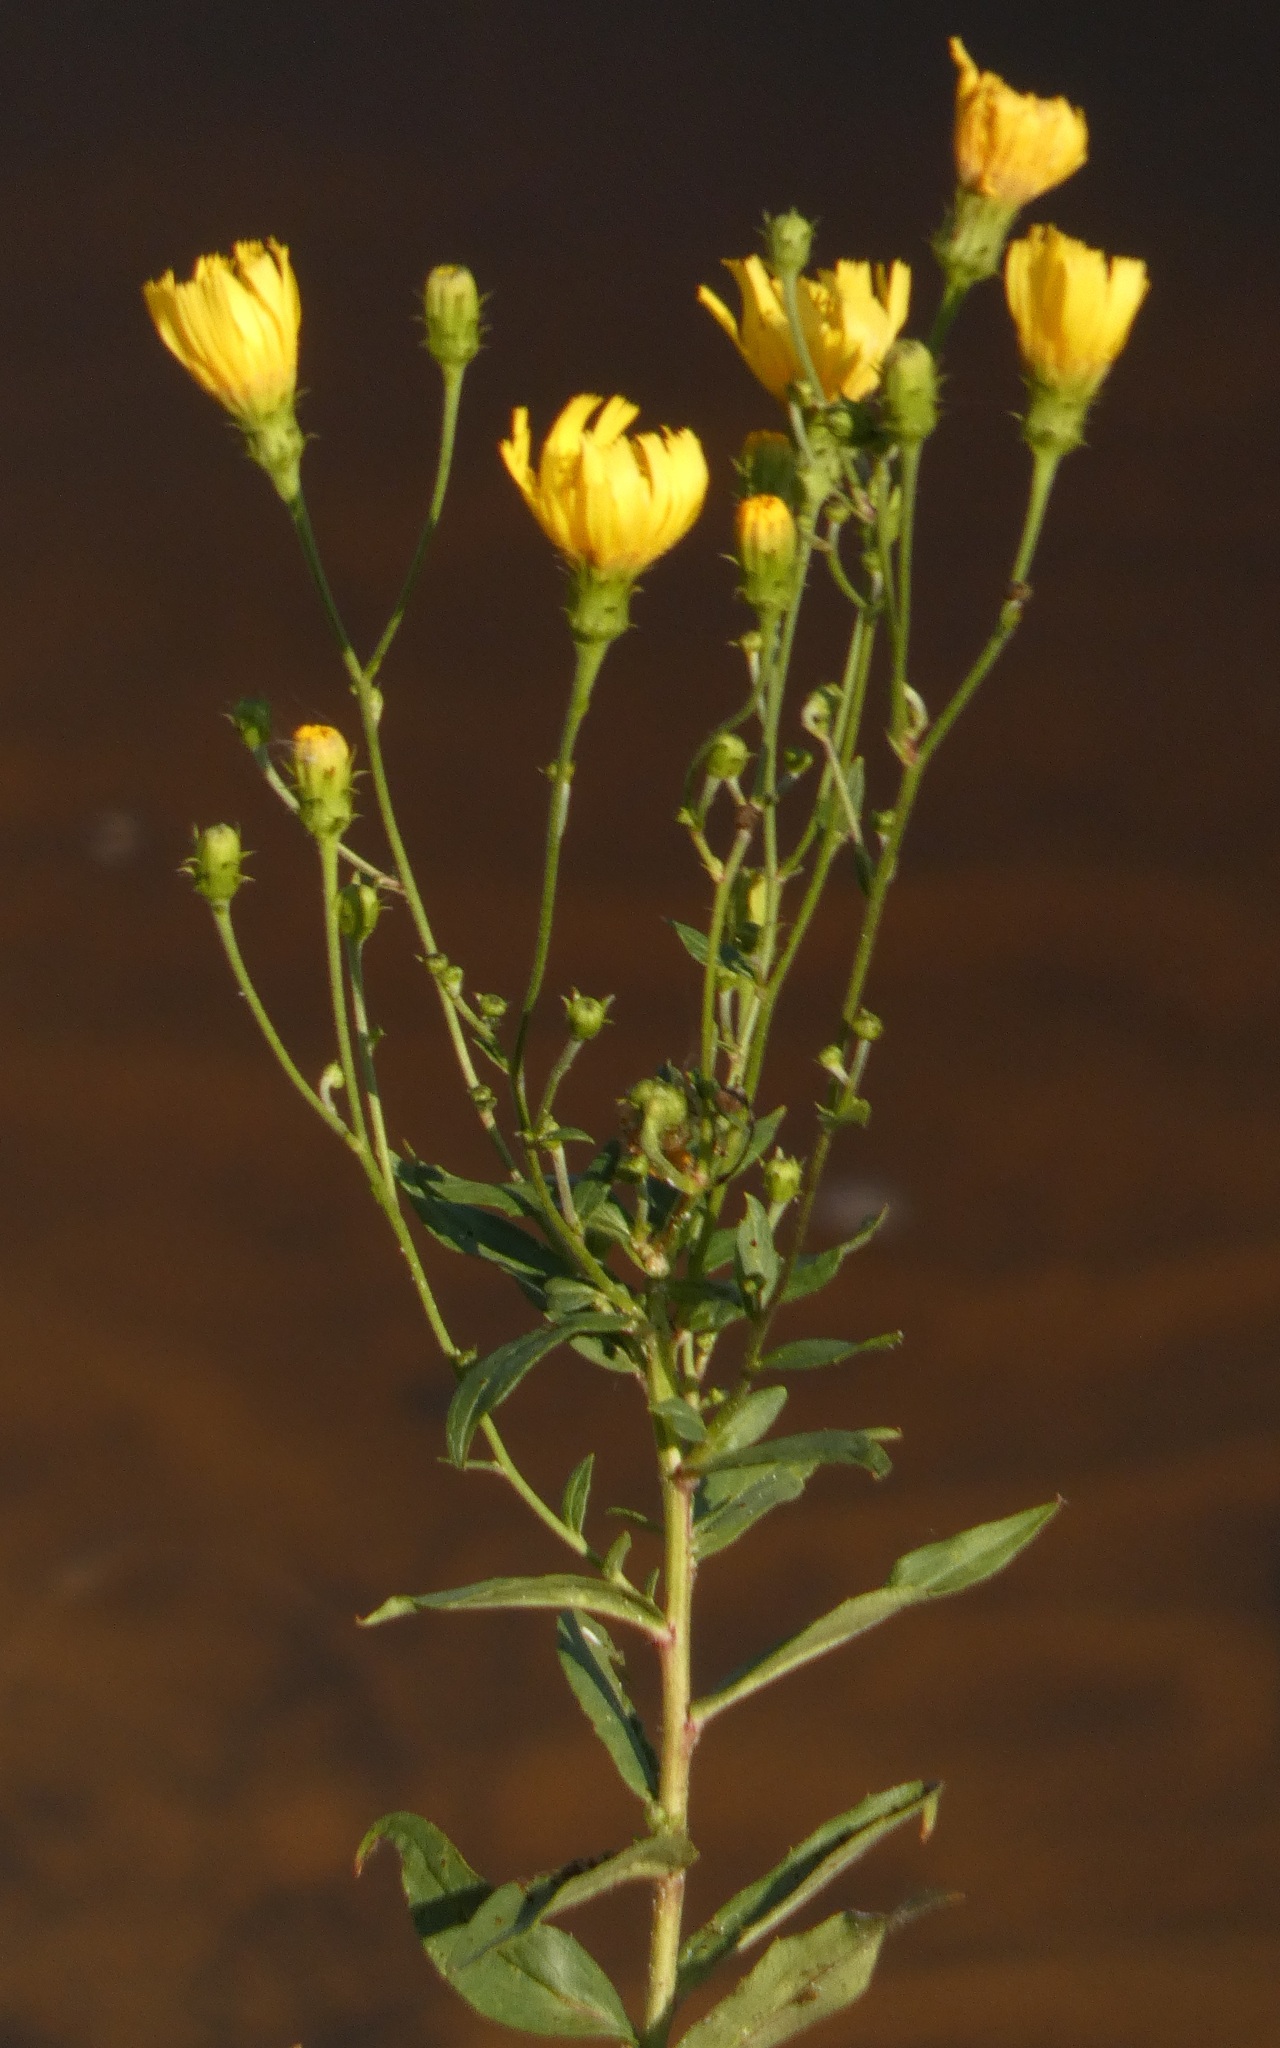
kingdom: Plantae
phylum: Tracheophyta
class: Magnoliopsida
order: Asterales
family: Asteraceae
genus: Hieracium
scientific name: Hieracium umbellatum
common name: Northern hawkweed
